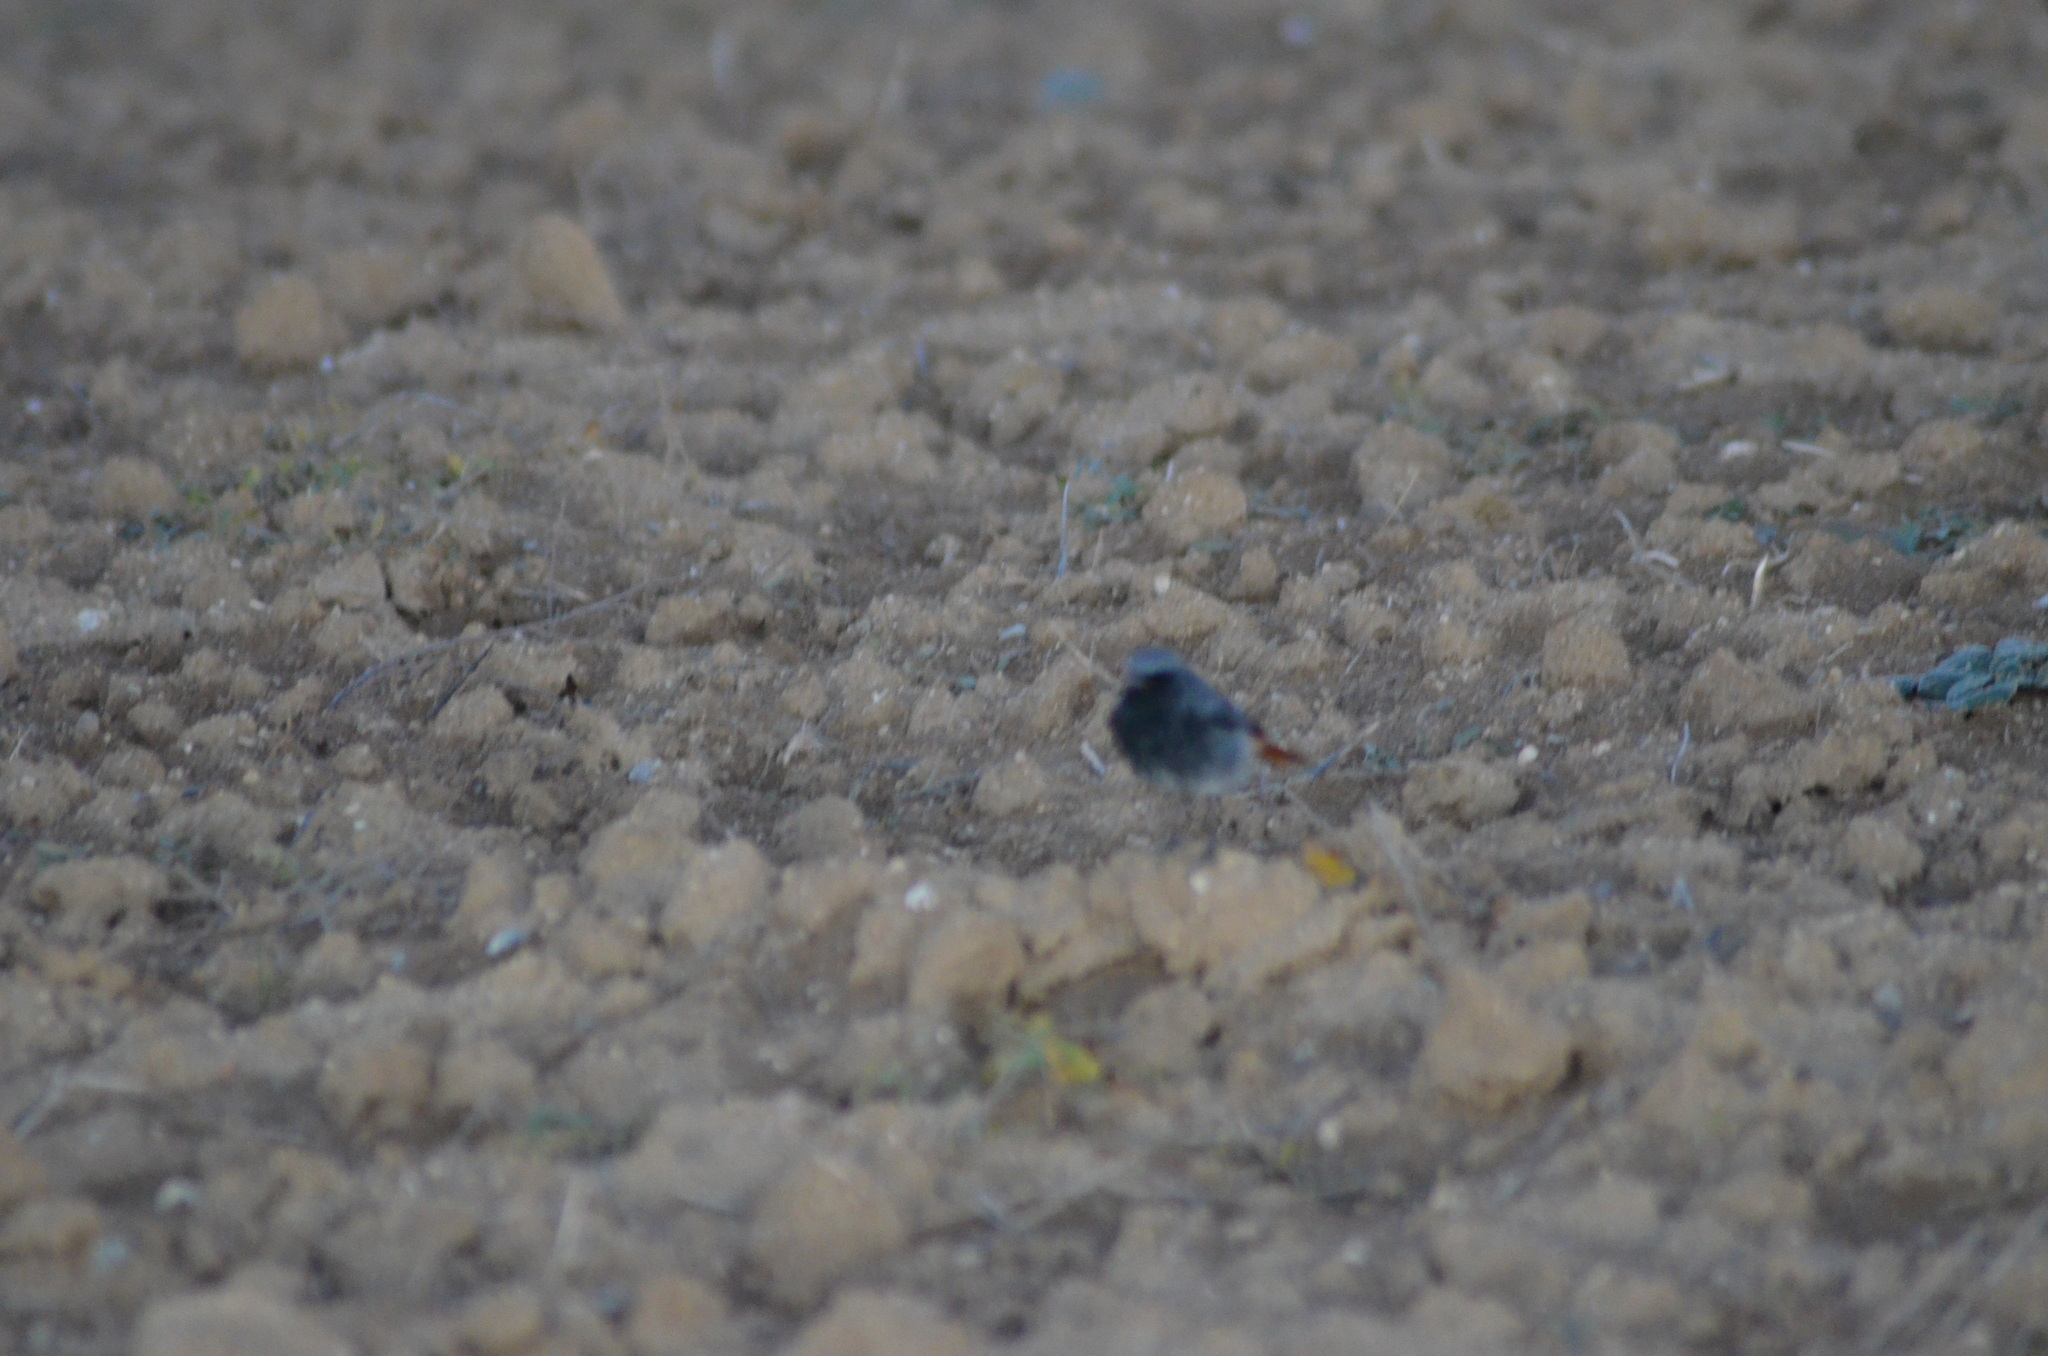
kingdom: Animalia
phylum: Chordata
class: Aves
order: Passeriformes
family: Muscicapidae
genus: Phoenicurus
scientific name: Phoenicurus ochruros
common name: Black redstart
